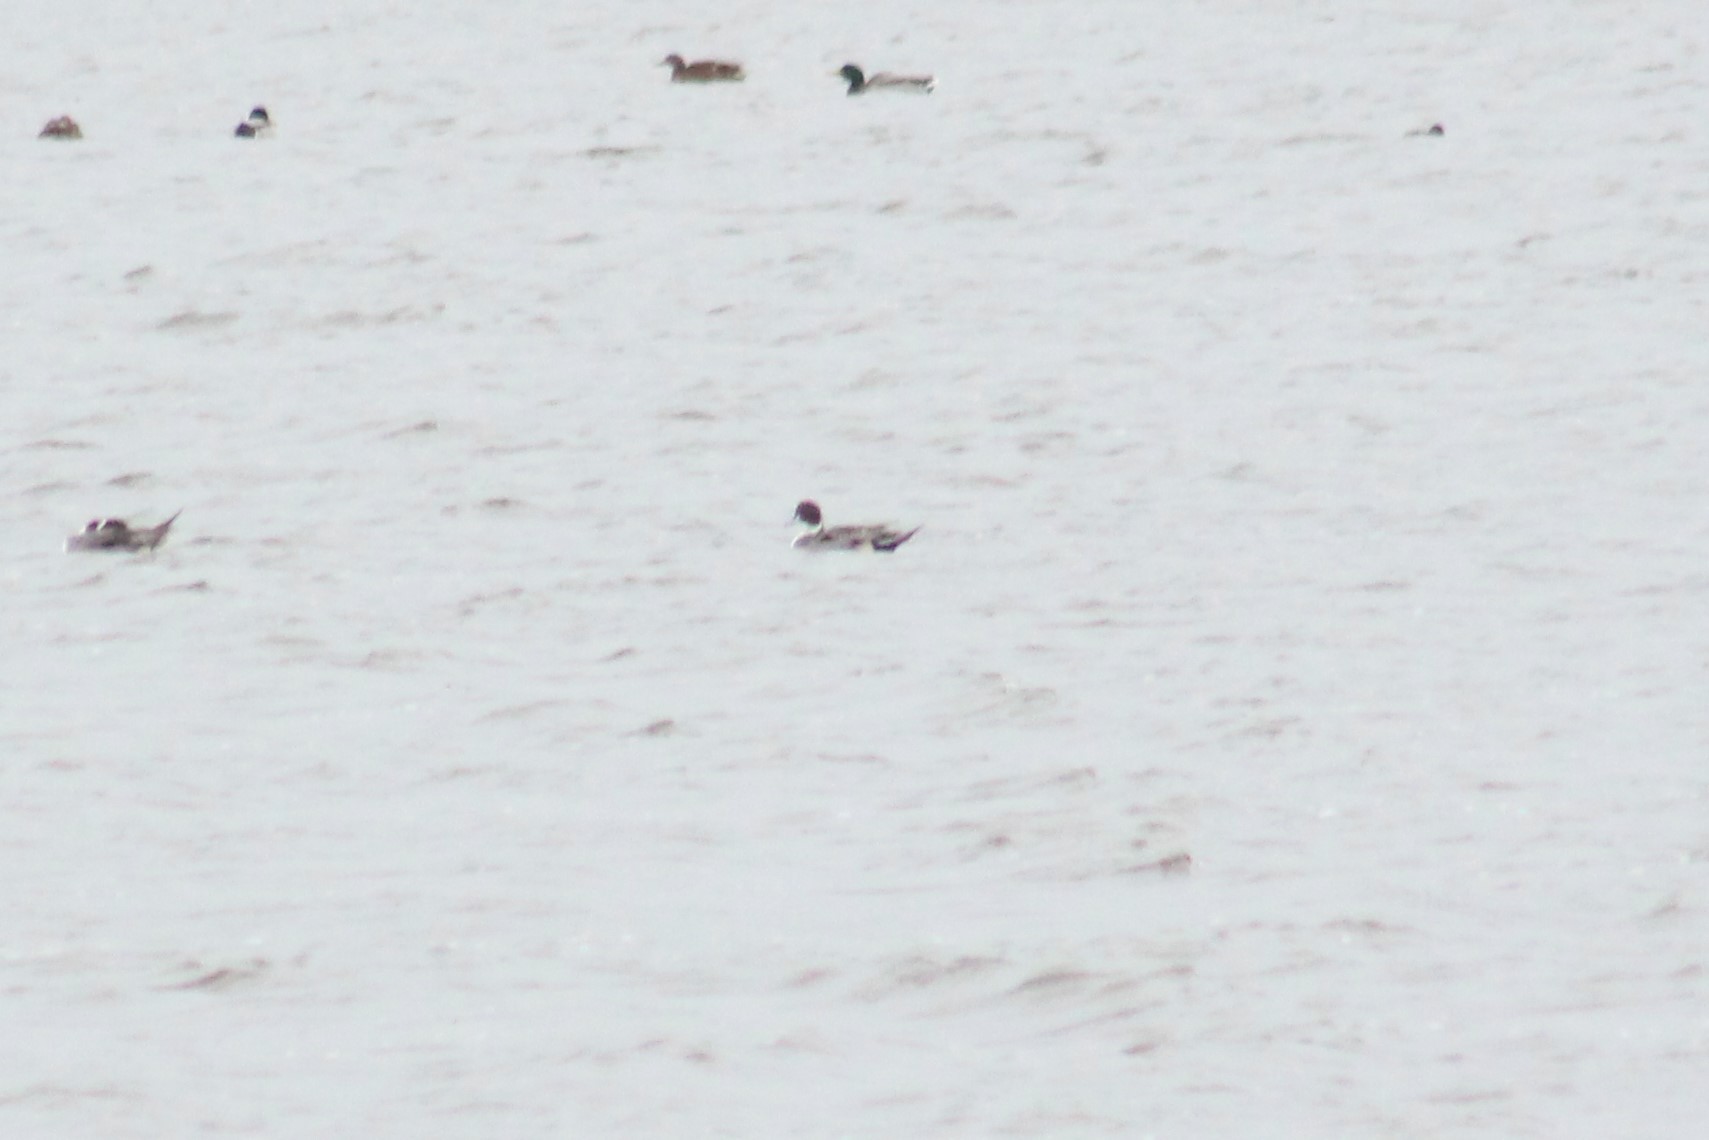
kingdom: Animalia
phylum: Chordata
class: Aves
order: Anseriformes
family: Anatidae
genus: Anas
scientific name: Anas acuta
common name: Northern pintail
